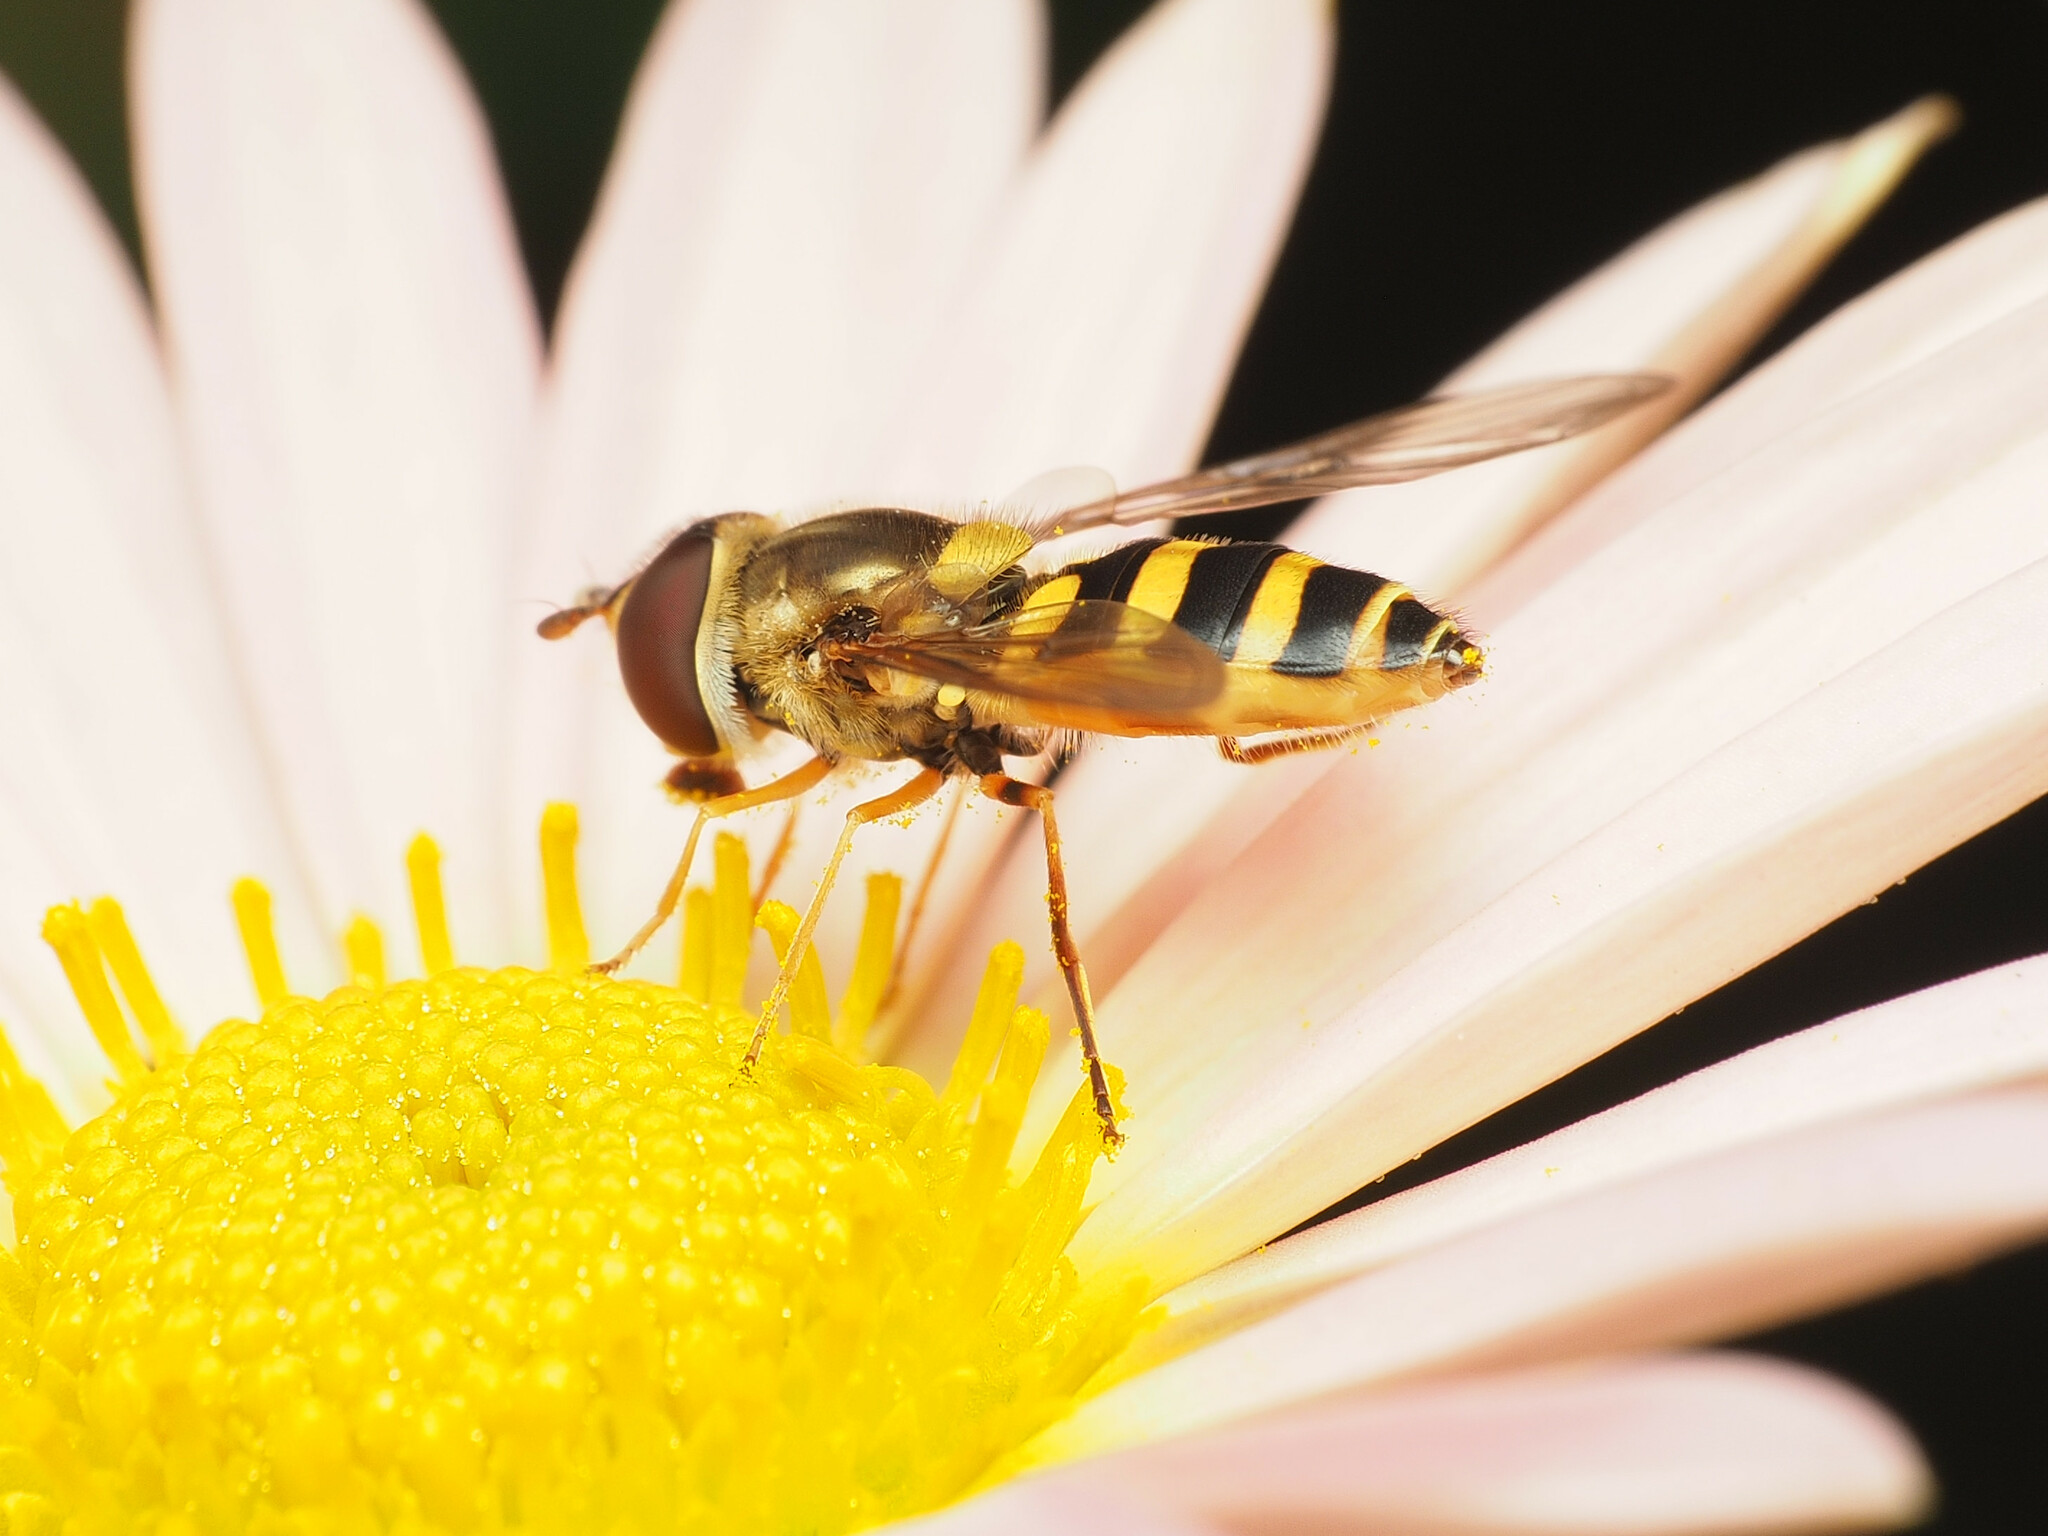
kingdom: Animalia
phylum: Arthropoda
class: Insecta
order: Diptera
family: Syrphidae
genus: Syrphus
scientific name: Syrphus rectus
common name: Yellow-legged flower fly
